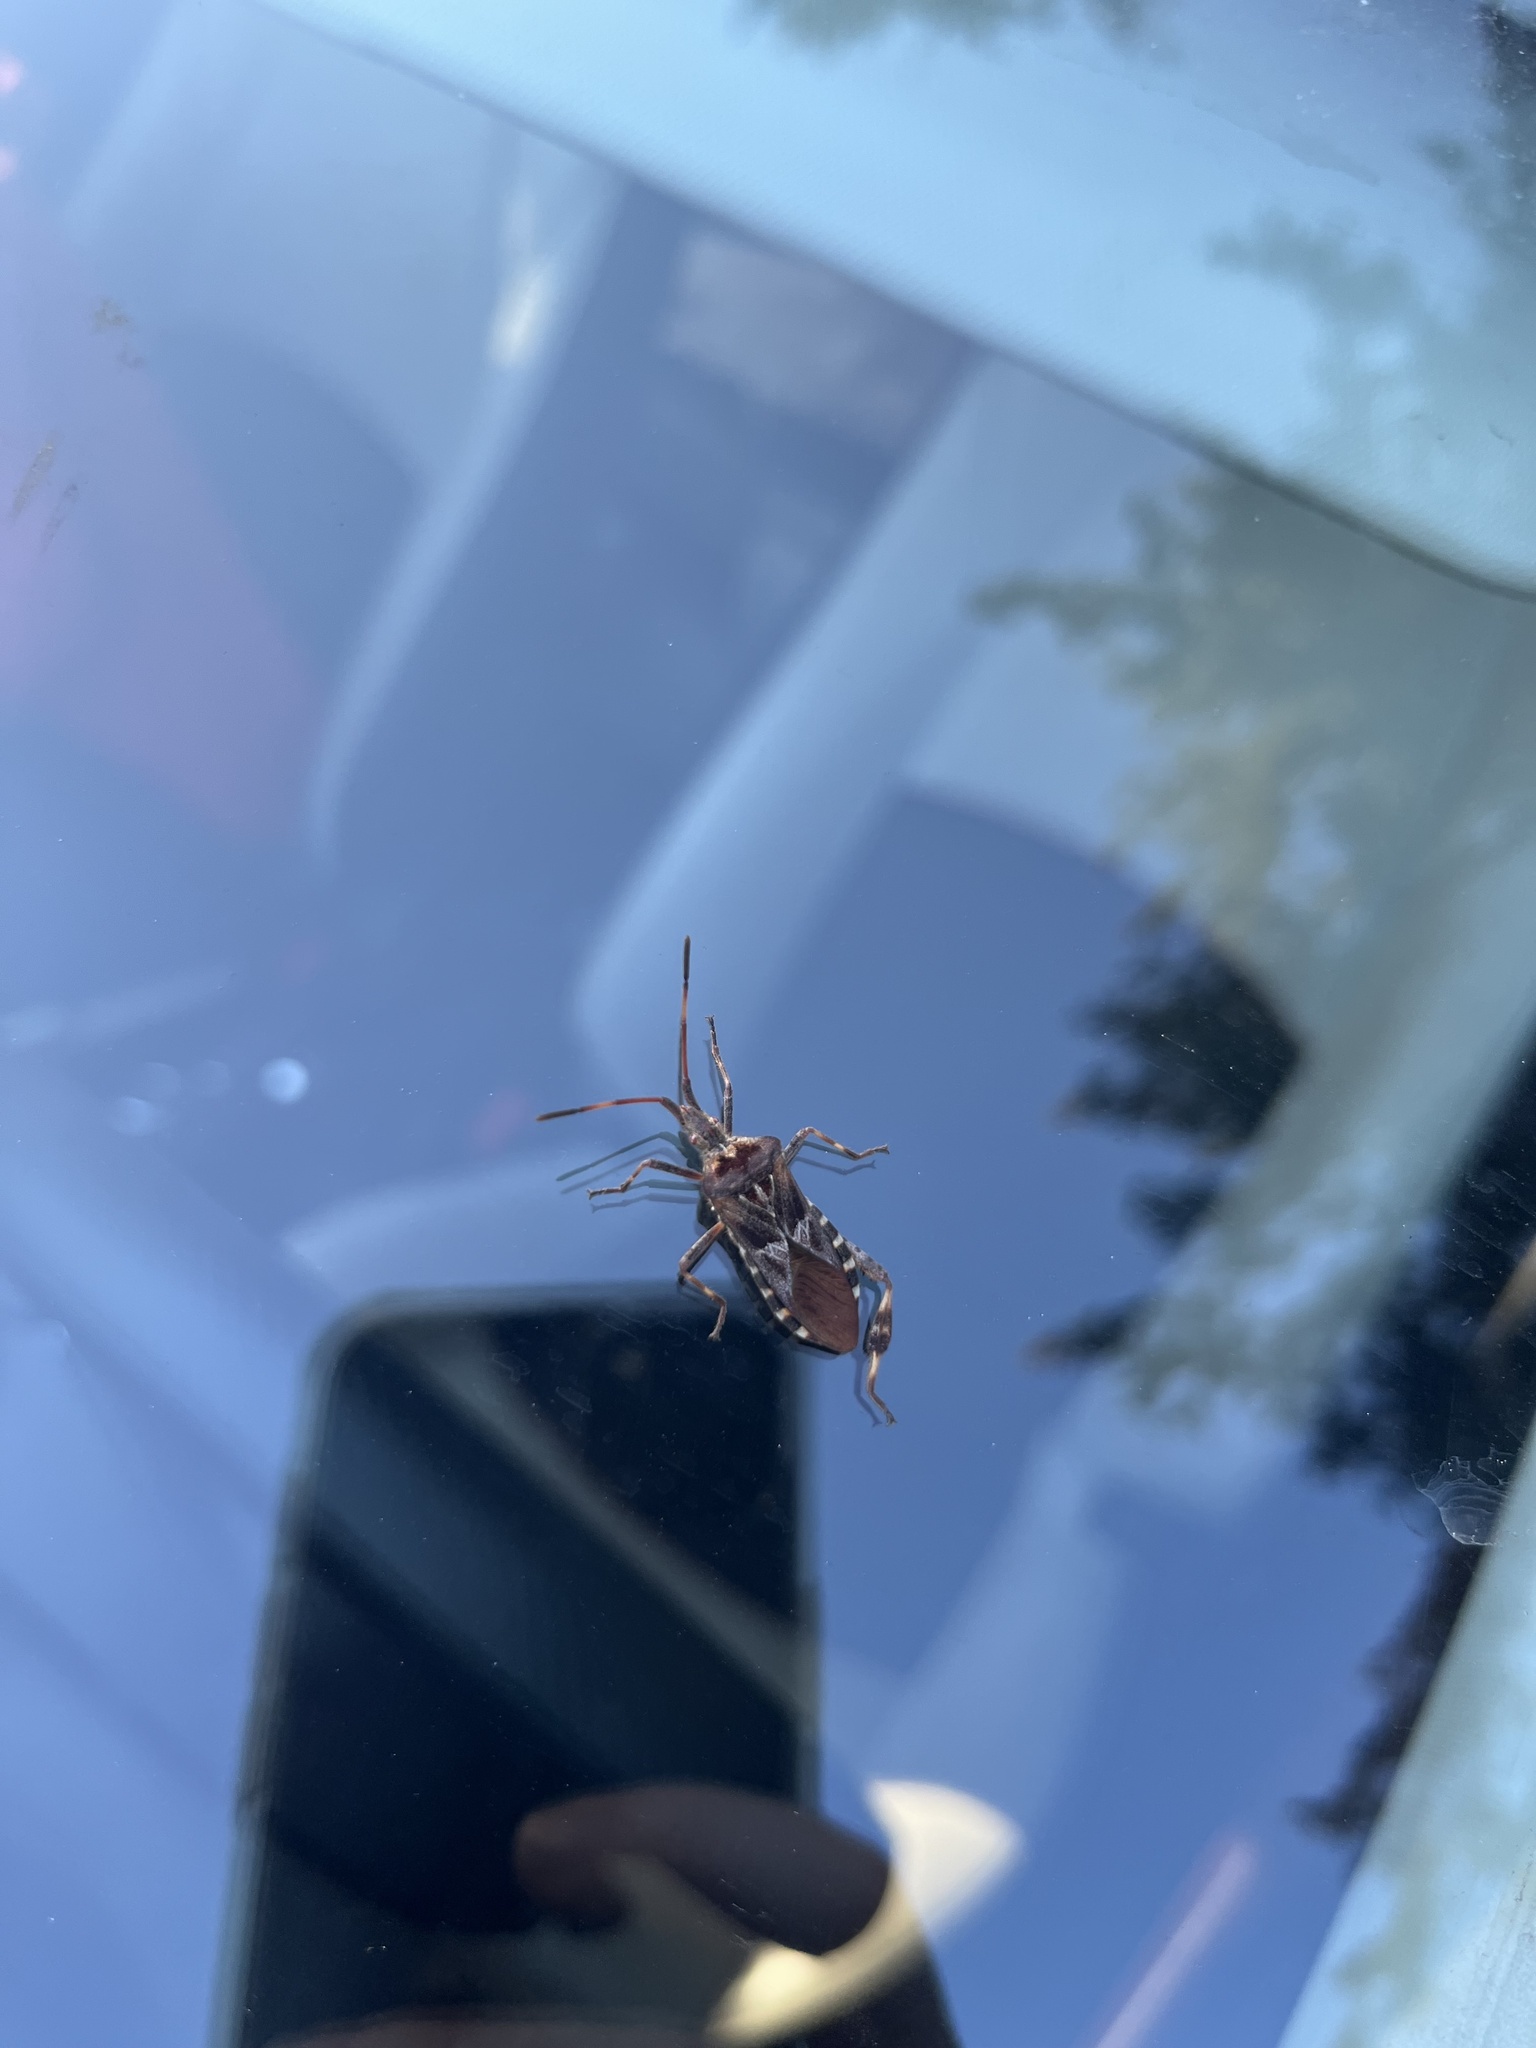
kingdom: Animalia
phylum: Arthropoda
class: Insecta
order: Hemiptera
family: Coreidae
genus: Leptoglossus
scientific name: Leptoglossus occidentalis
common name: Western conifer-seed bug
